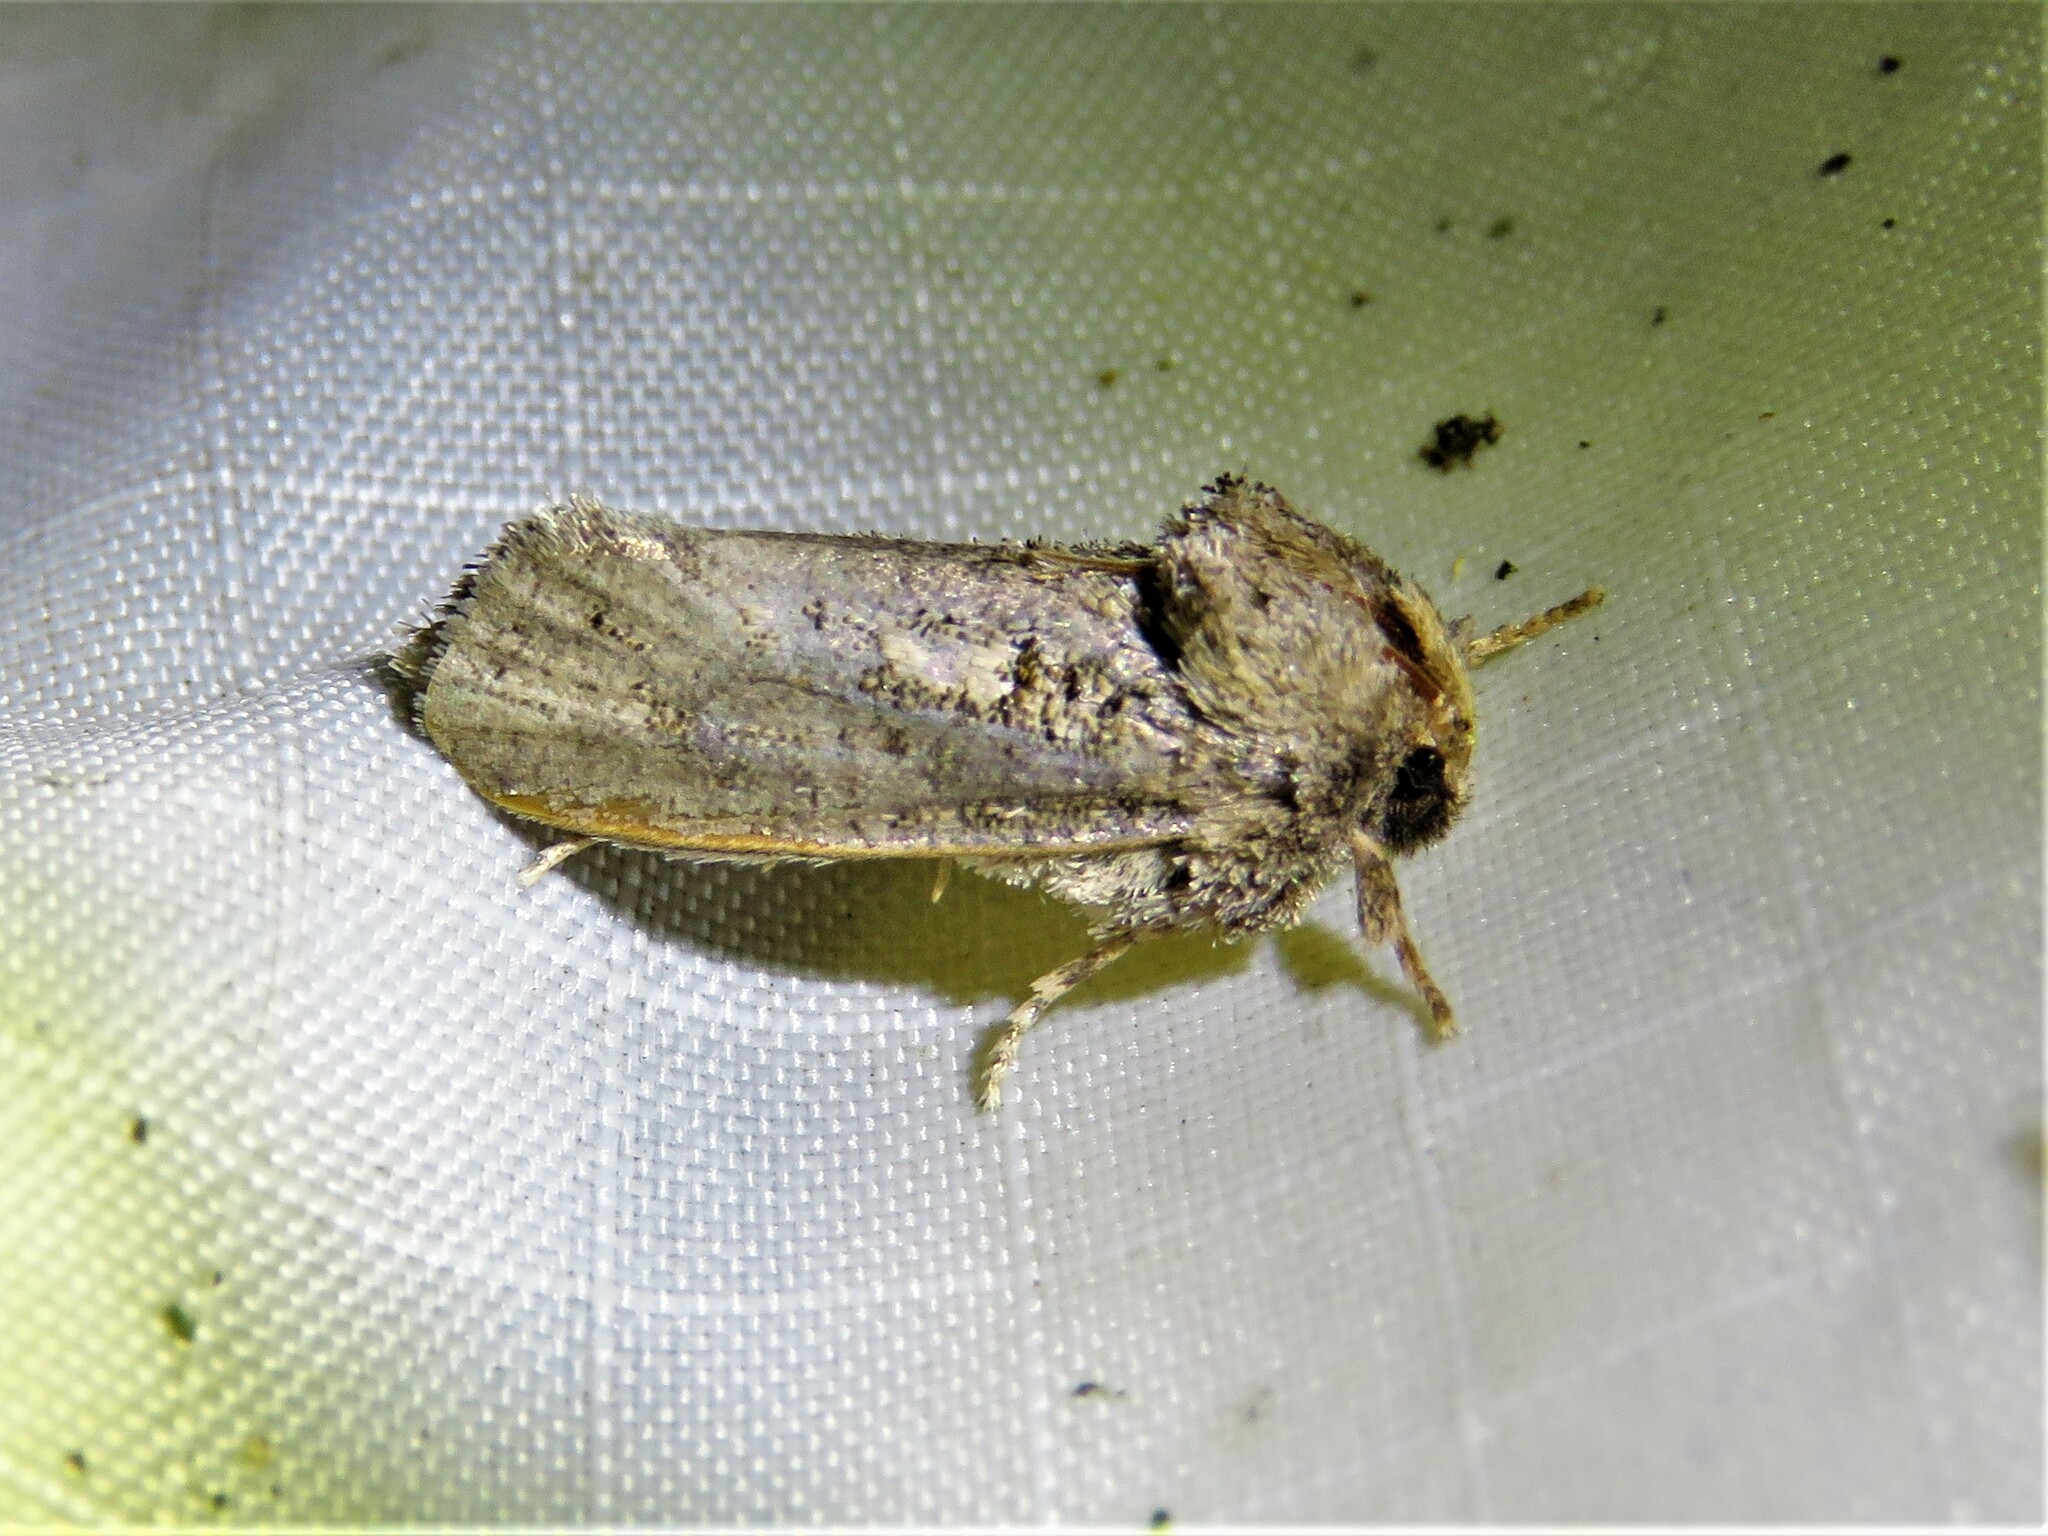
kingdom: Animalia
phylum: Arthropoda
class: Insecta
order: Lepidoptera
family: Tineidae
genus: Acrolophus
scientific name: Acrolophus arcanella
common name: Arcane grass tubeworm moth
